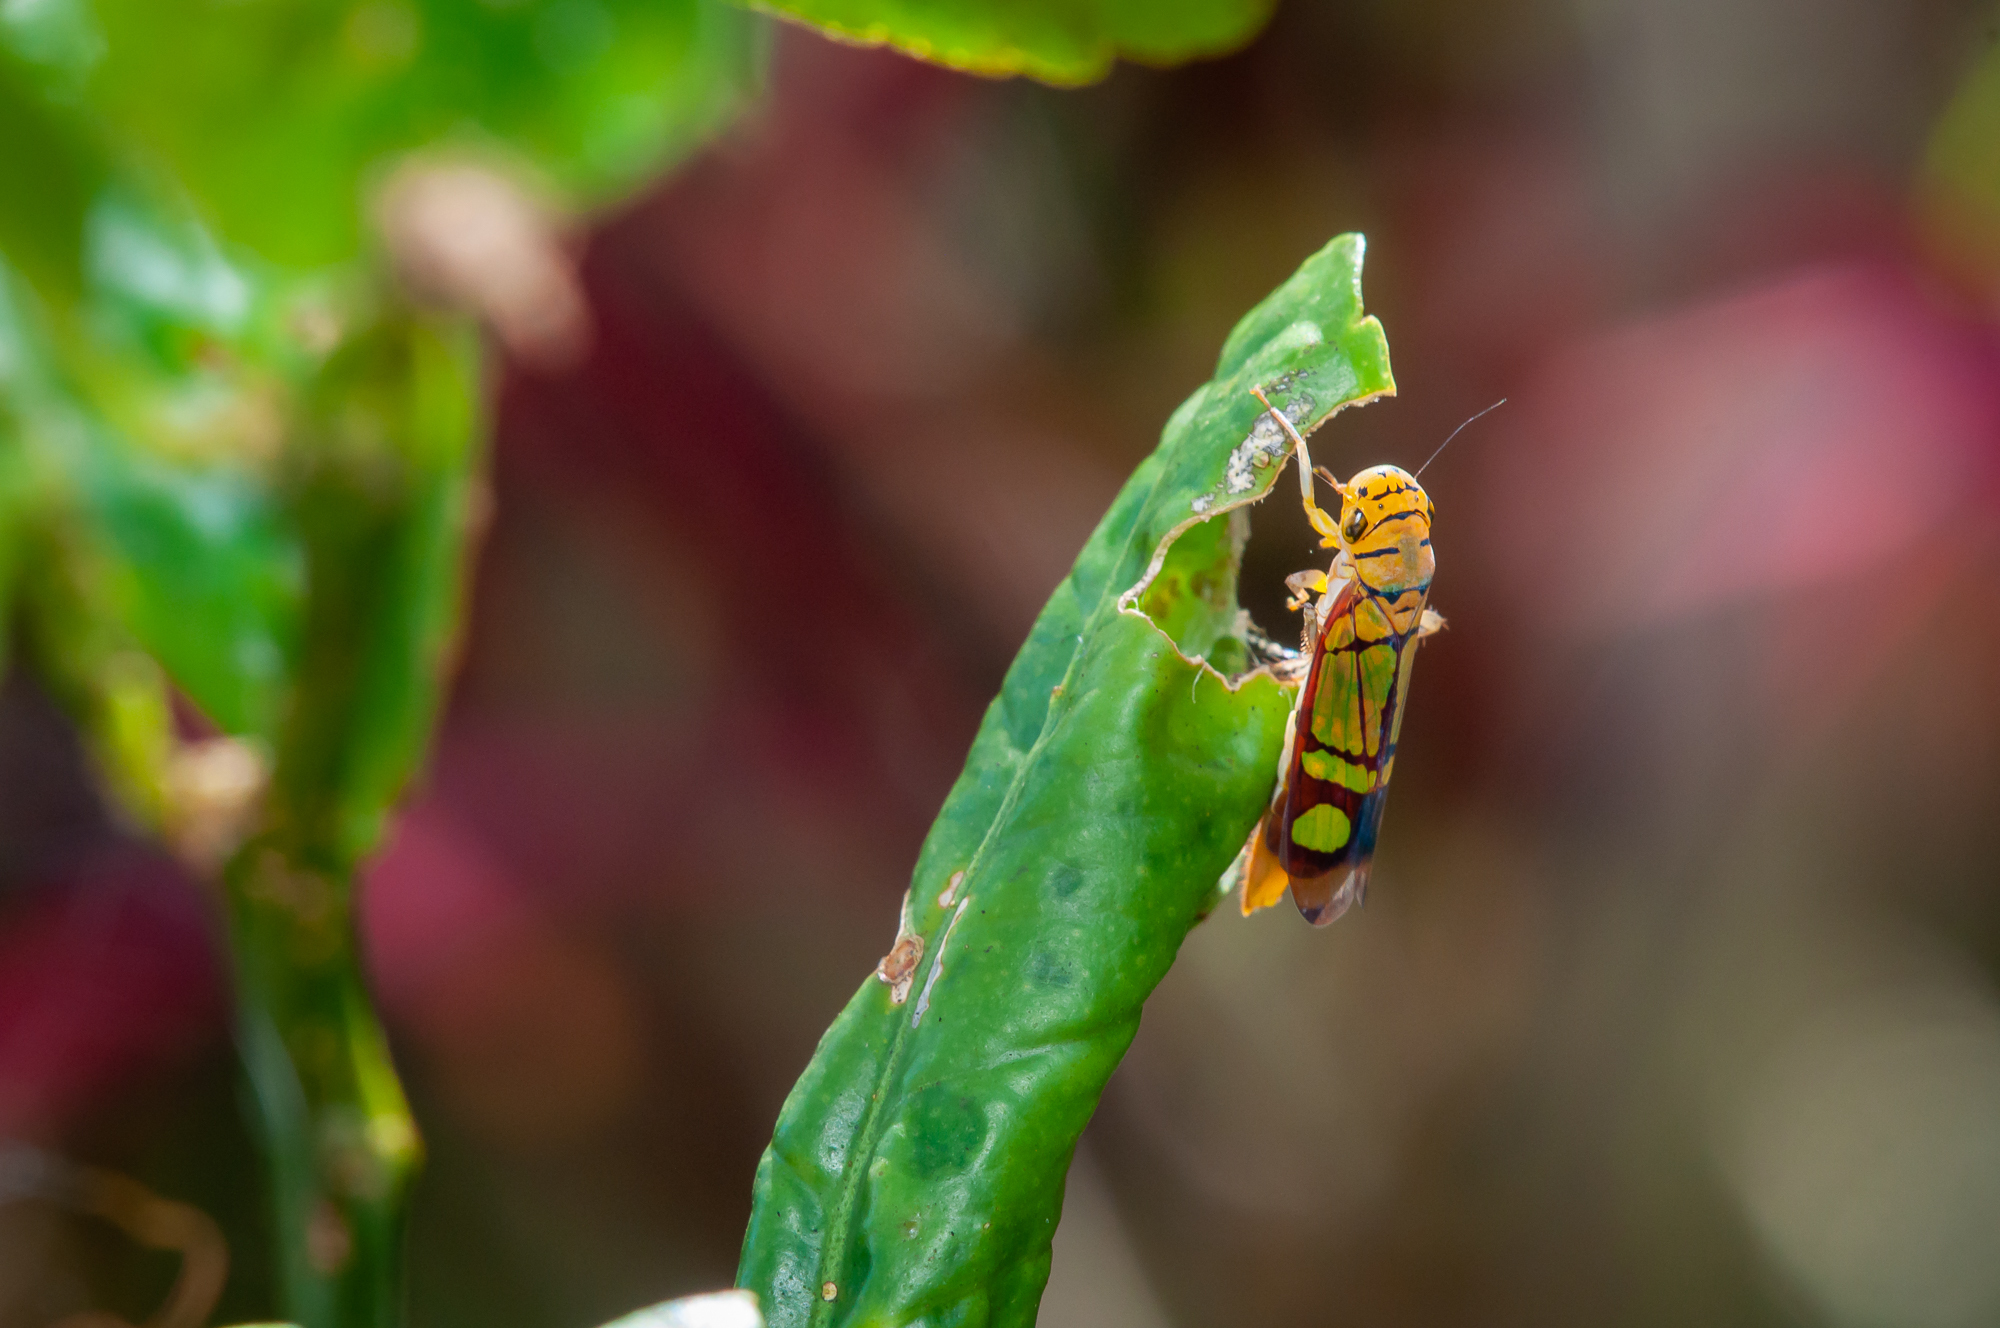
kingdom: Animalia
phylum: Arthropoda
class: Insecta
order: Hemiptera
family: Cicadellidae
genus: Dilobopterus
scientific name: Dilobopterus instratus
